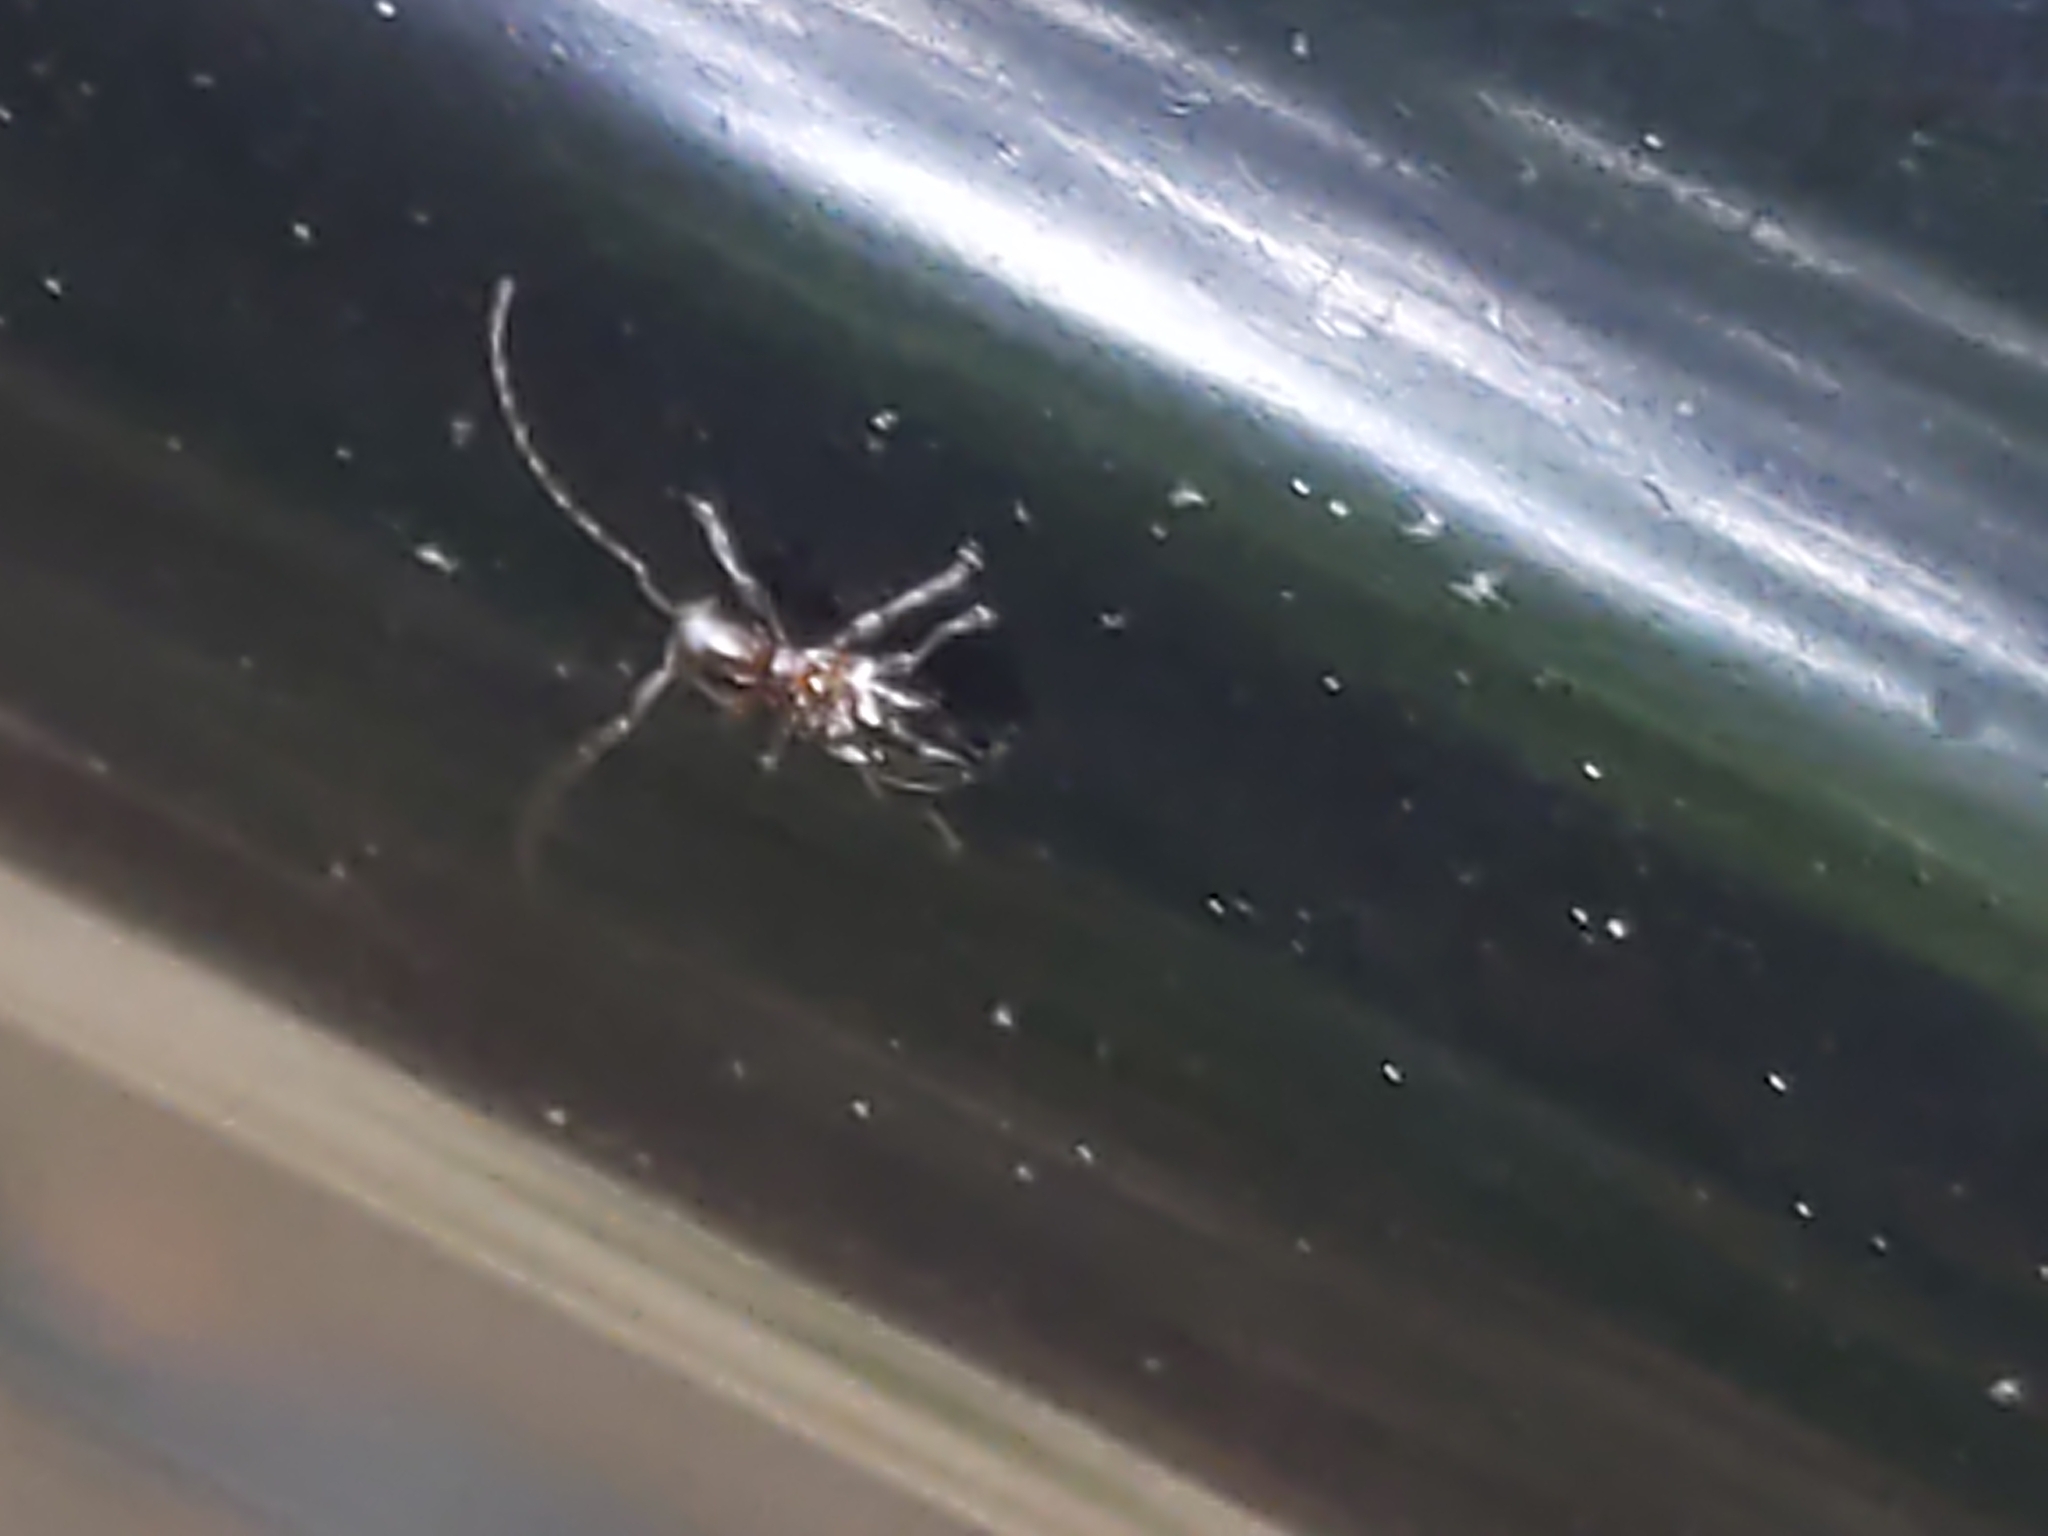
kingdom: Animalia
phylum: Arthropoda
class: Insecta
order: Coleoptera
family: Cerambycidae
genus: Cyrtinus
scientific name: Cyrtinus pygmaeus
